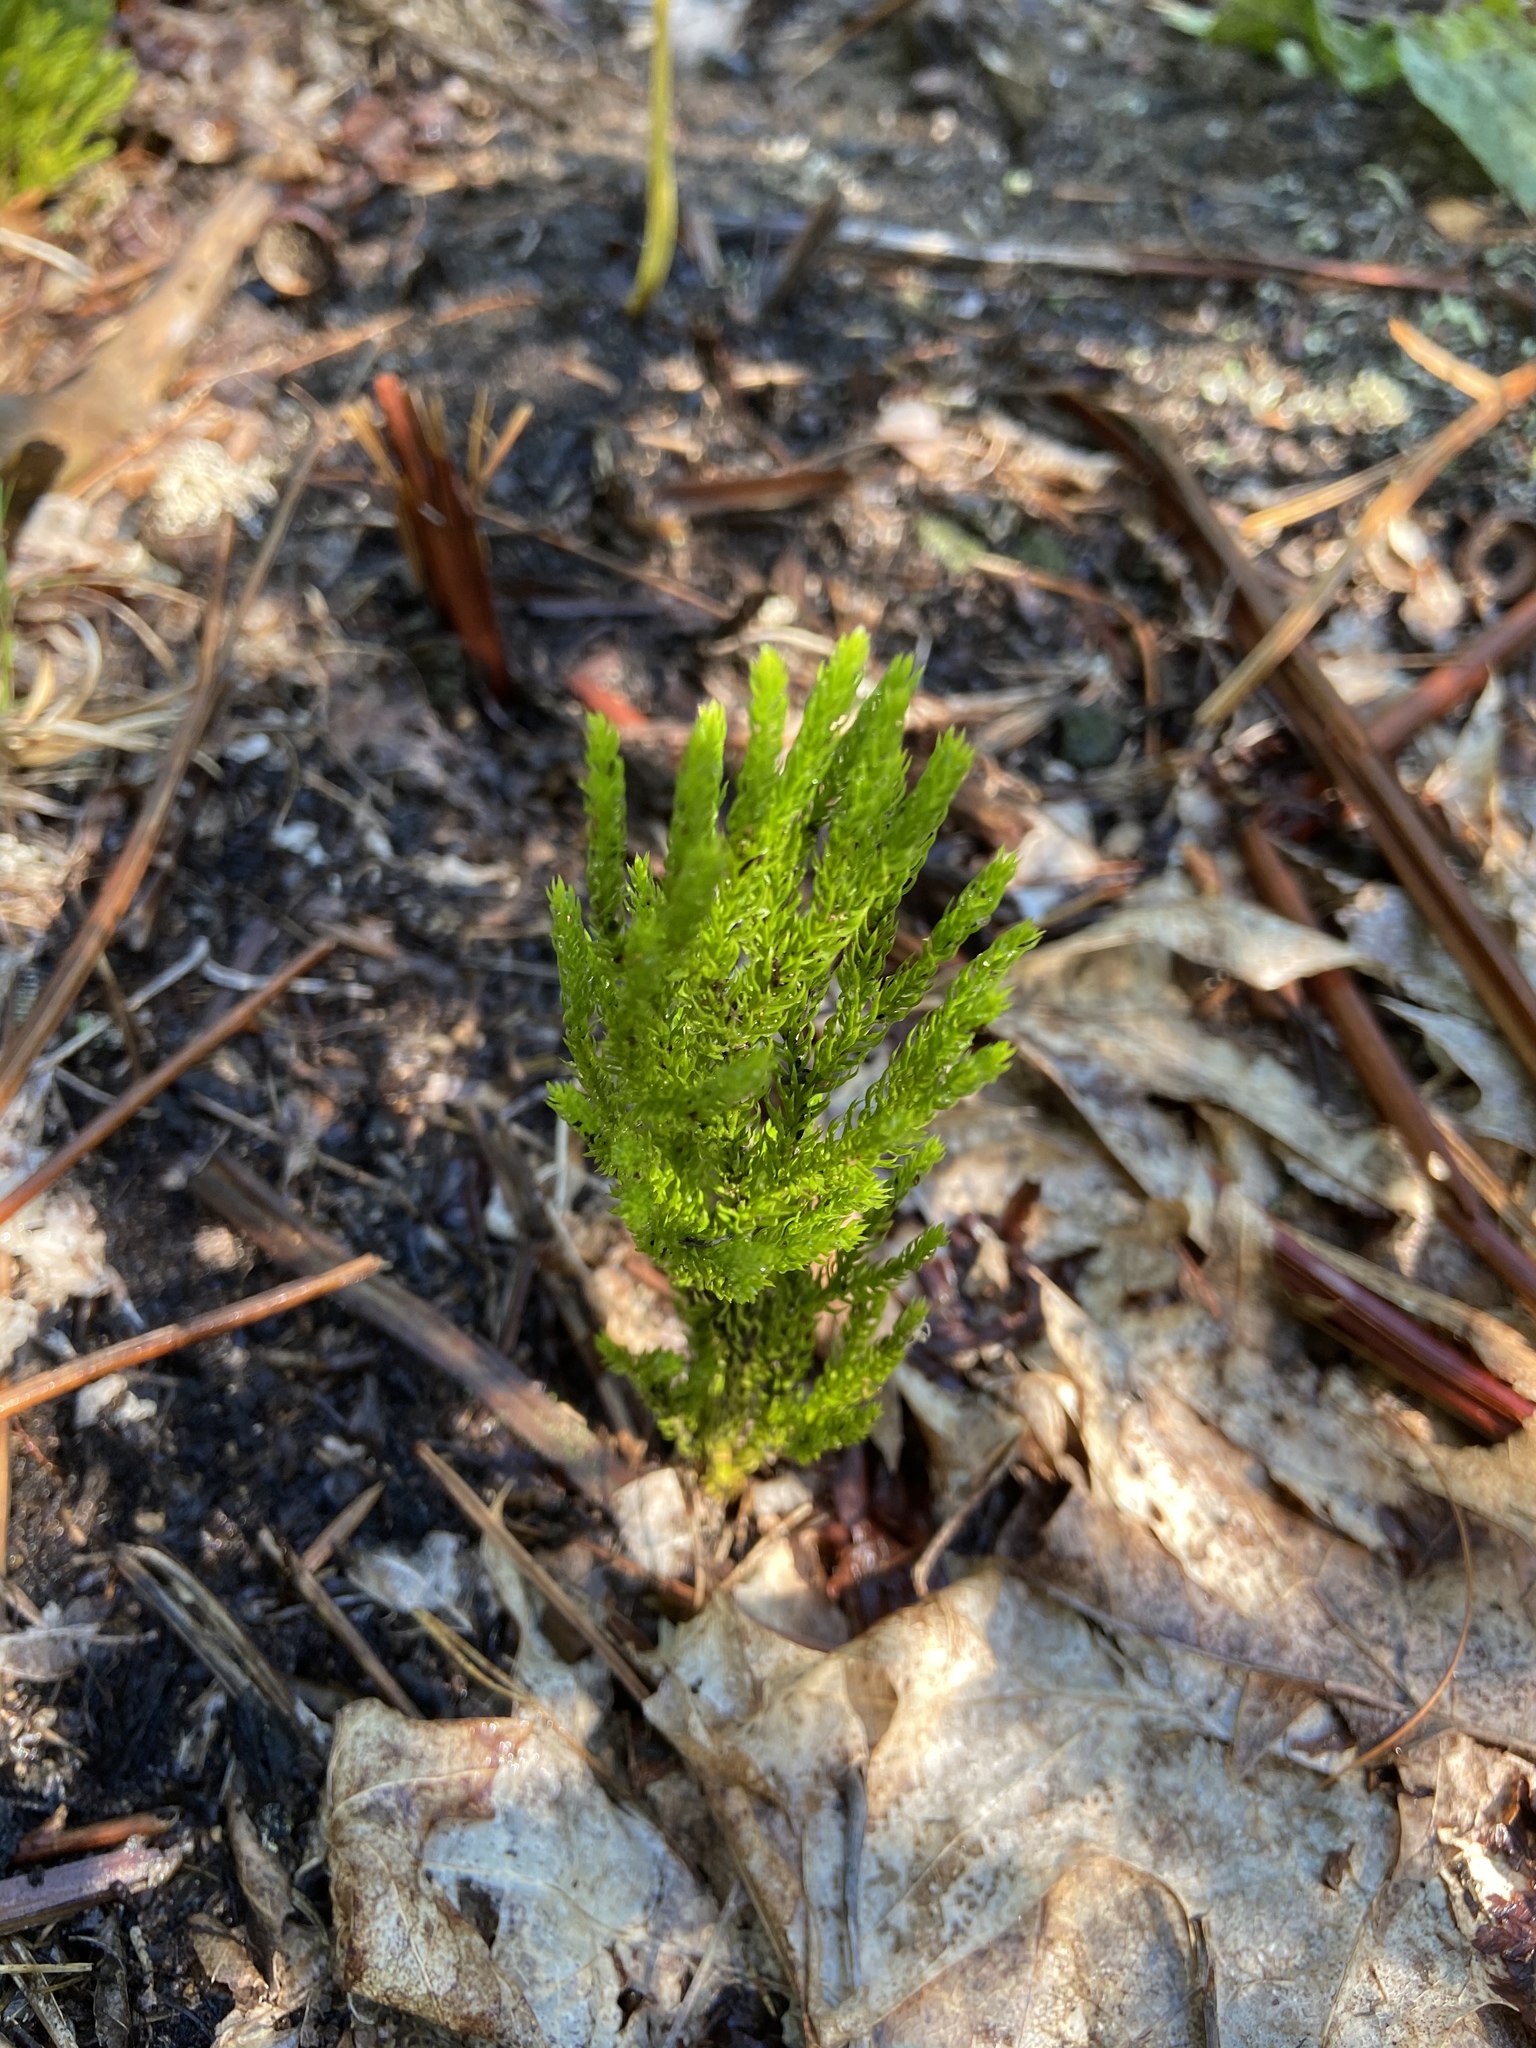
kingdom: Plantae
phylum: Tracheophyta
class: Lycopodiopsida
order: Lycopodiales
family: Lycopodiaceae
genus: Dendrolycopodium
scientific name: Dendrolycopodium hickeyi
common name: Hickey's clubmoss
